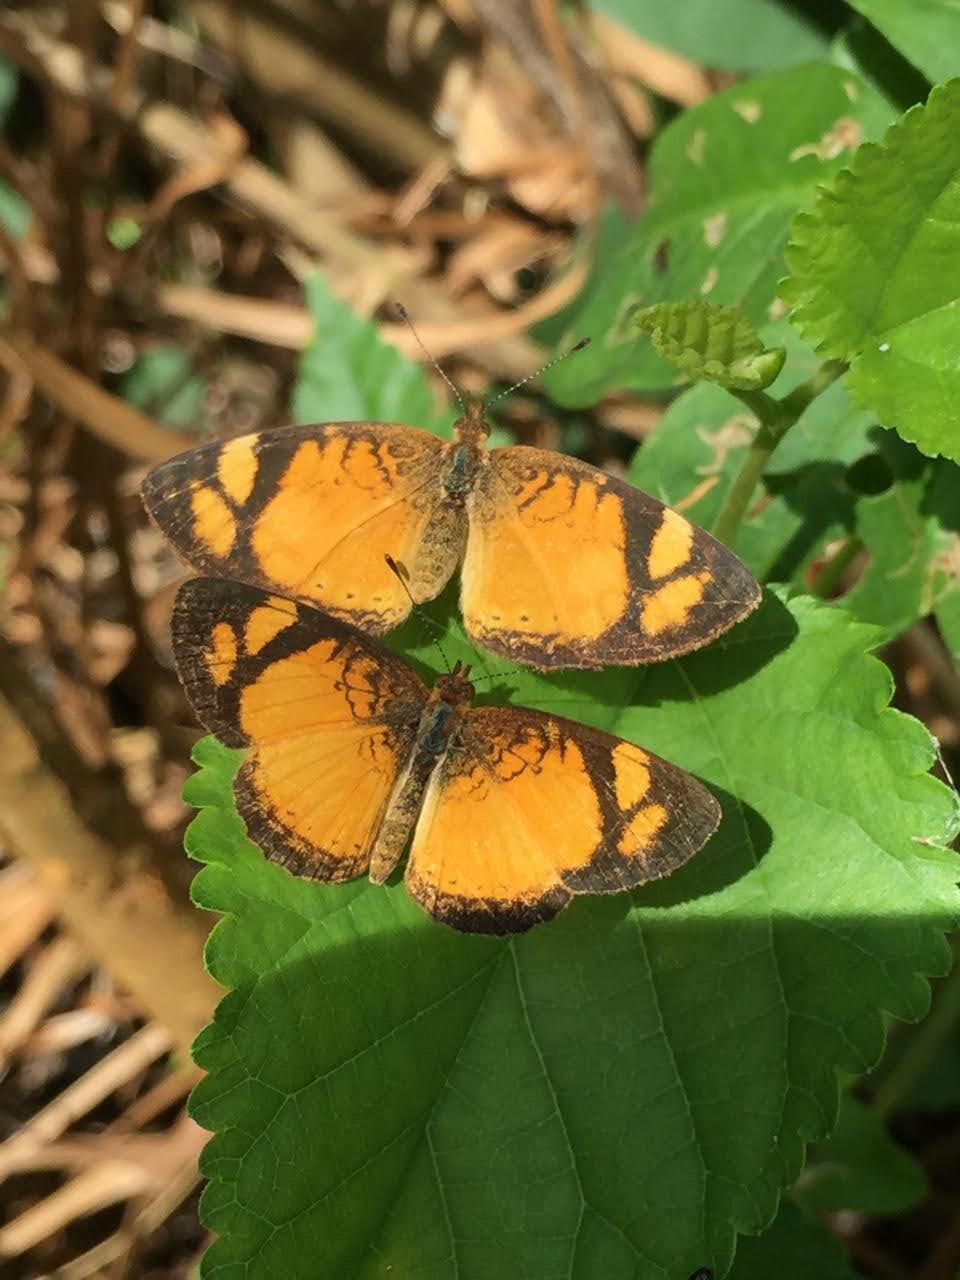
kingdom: Animalia
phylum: Arthropoda
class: Insecta
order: Lepidoptera
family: Nymphalidae
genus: Tegosa
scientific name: Tegosa claudina
